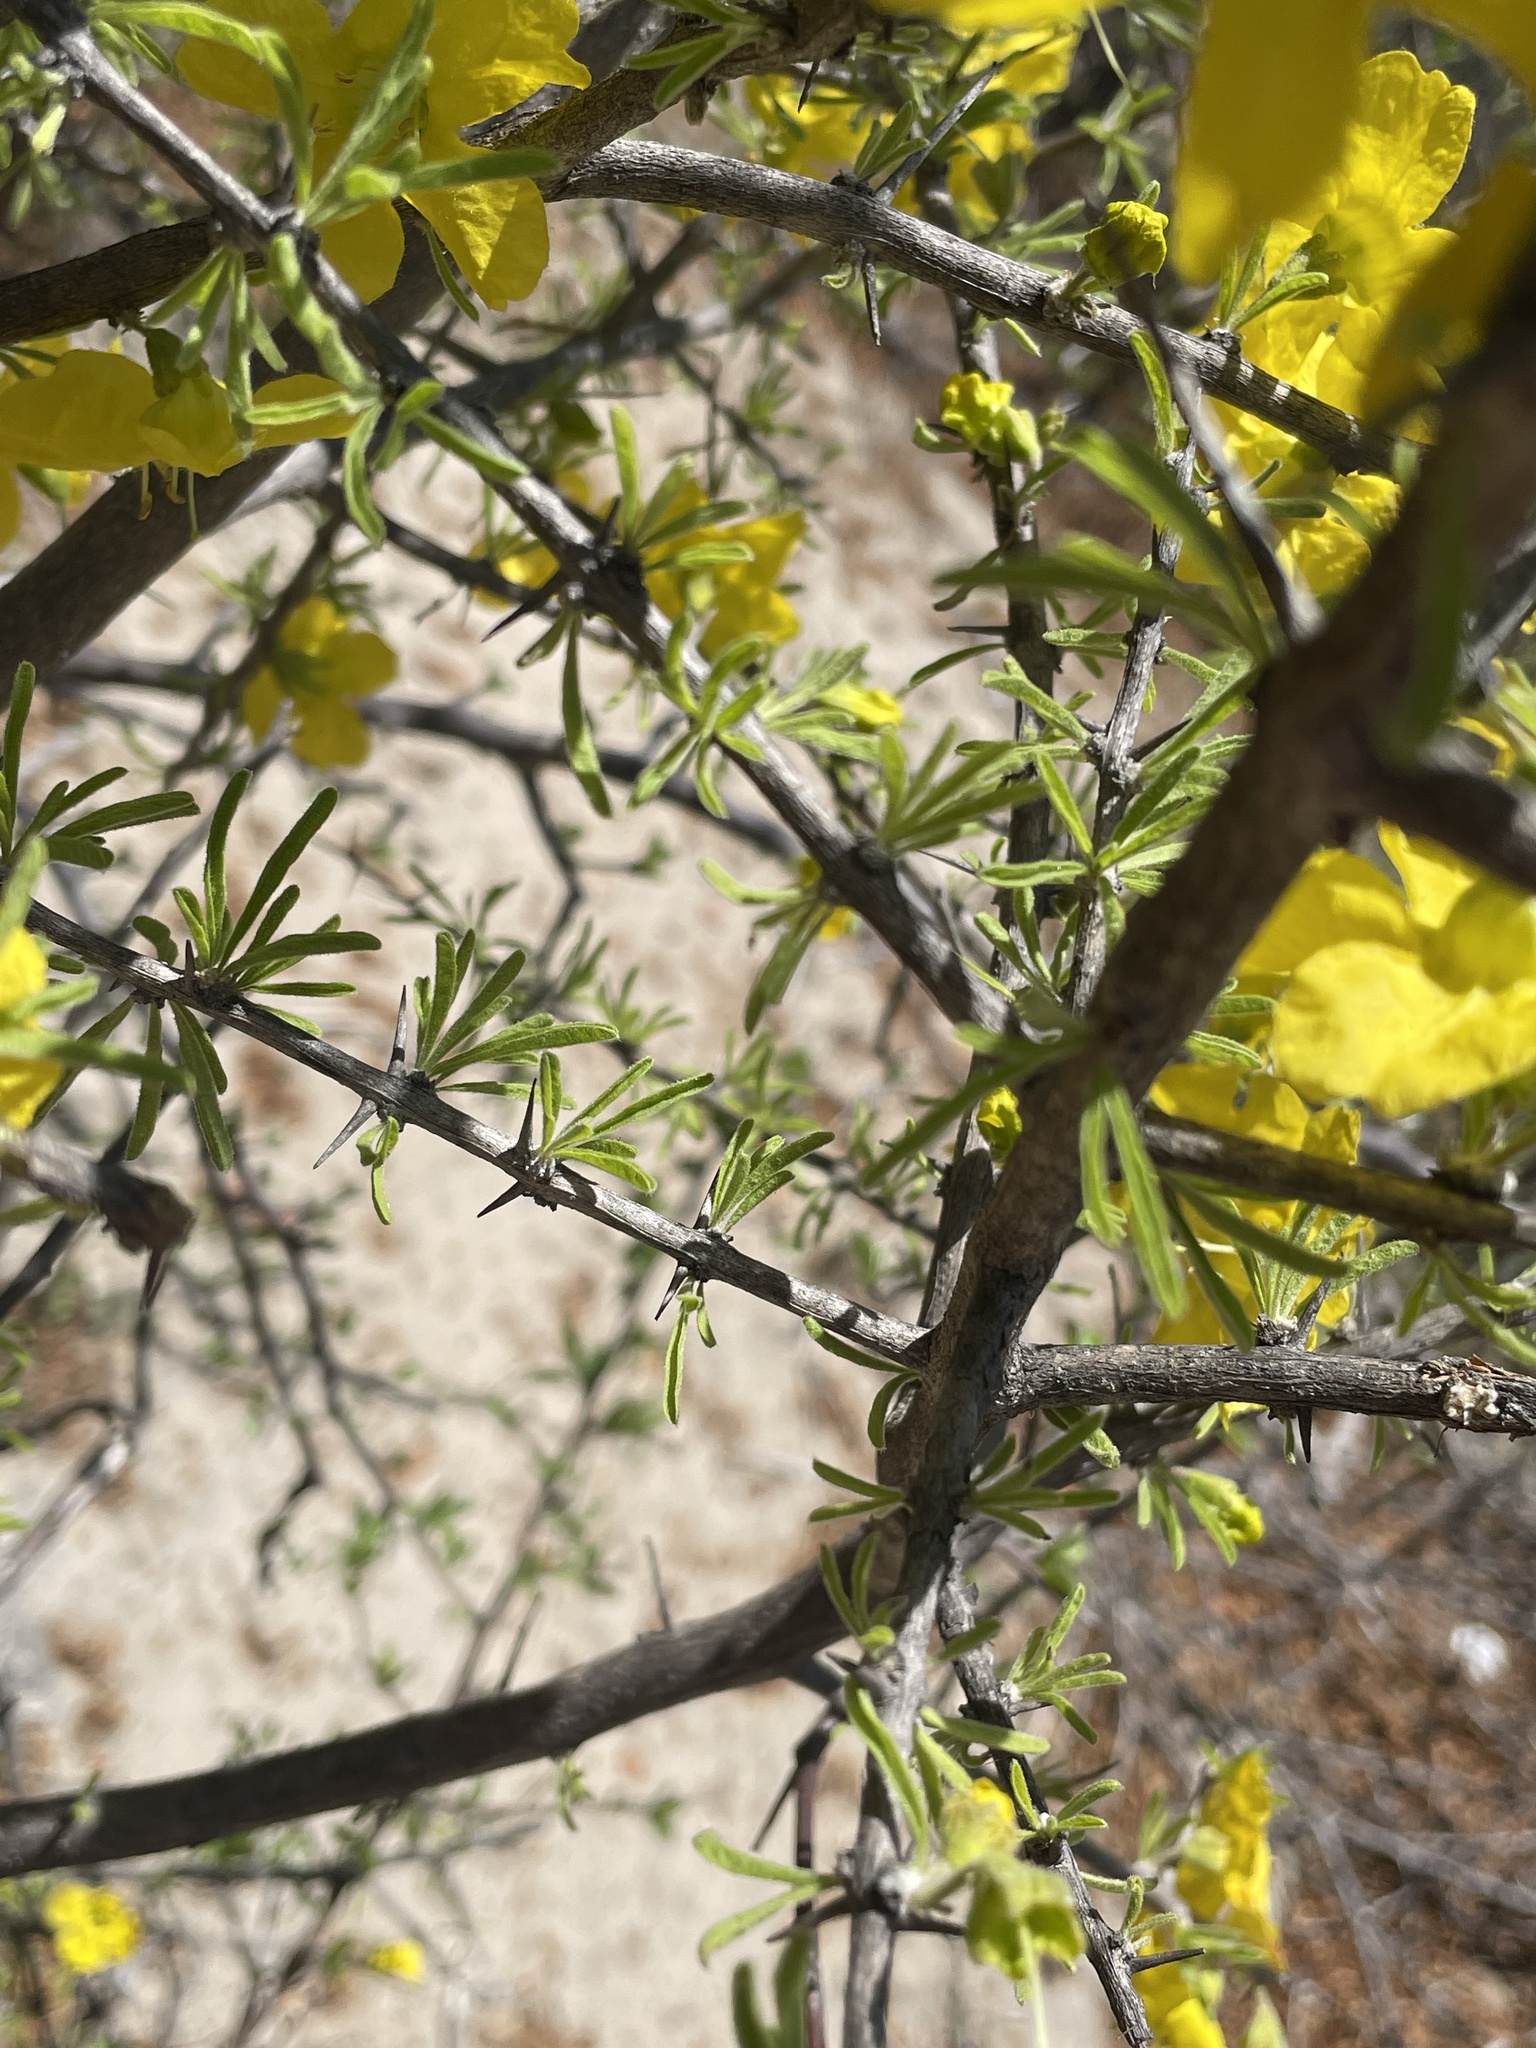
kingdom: Plantae
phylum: Tracheophyta
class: Magnoliopsida
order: Lamiales
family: Bignoniaceae
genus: Rhigozum
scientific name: Rhigozum brevispinosum
